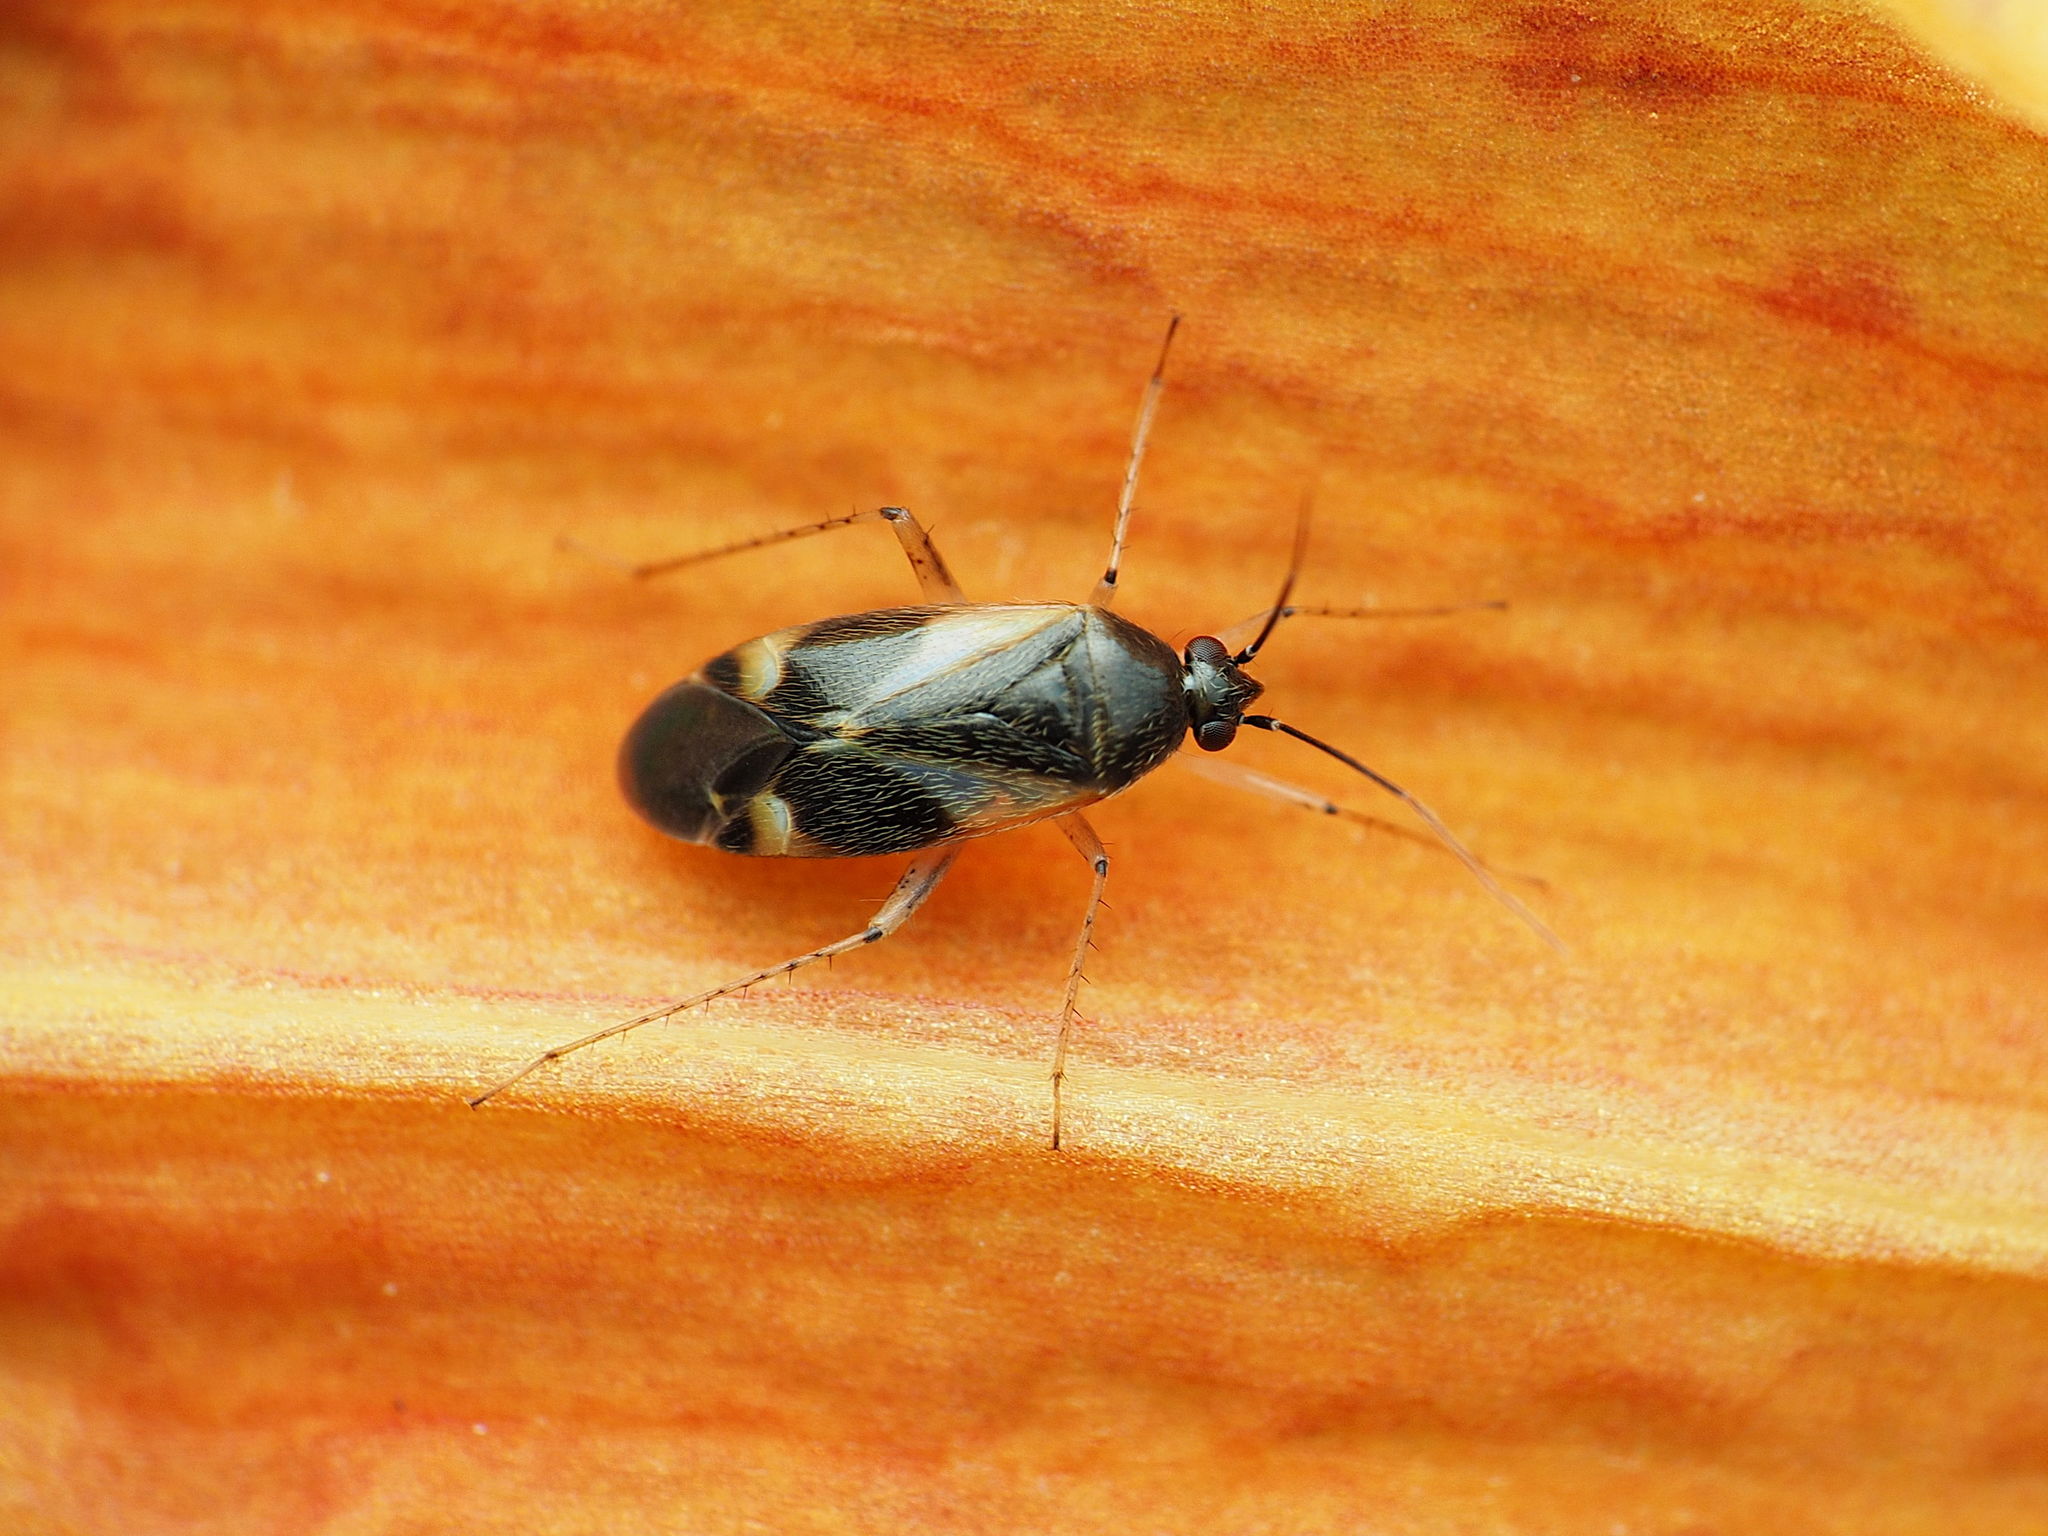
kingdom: Animalia
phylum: Arthropoda
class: Insecta
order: Hemiptera
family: Miridae
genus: Plagiognathus
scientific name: Plagiognathus obscurus
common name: Obscure plant bug
